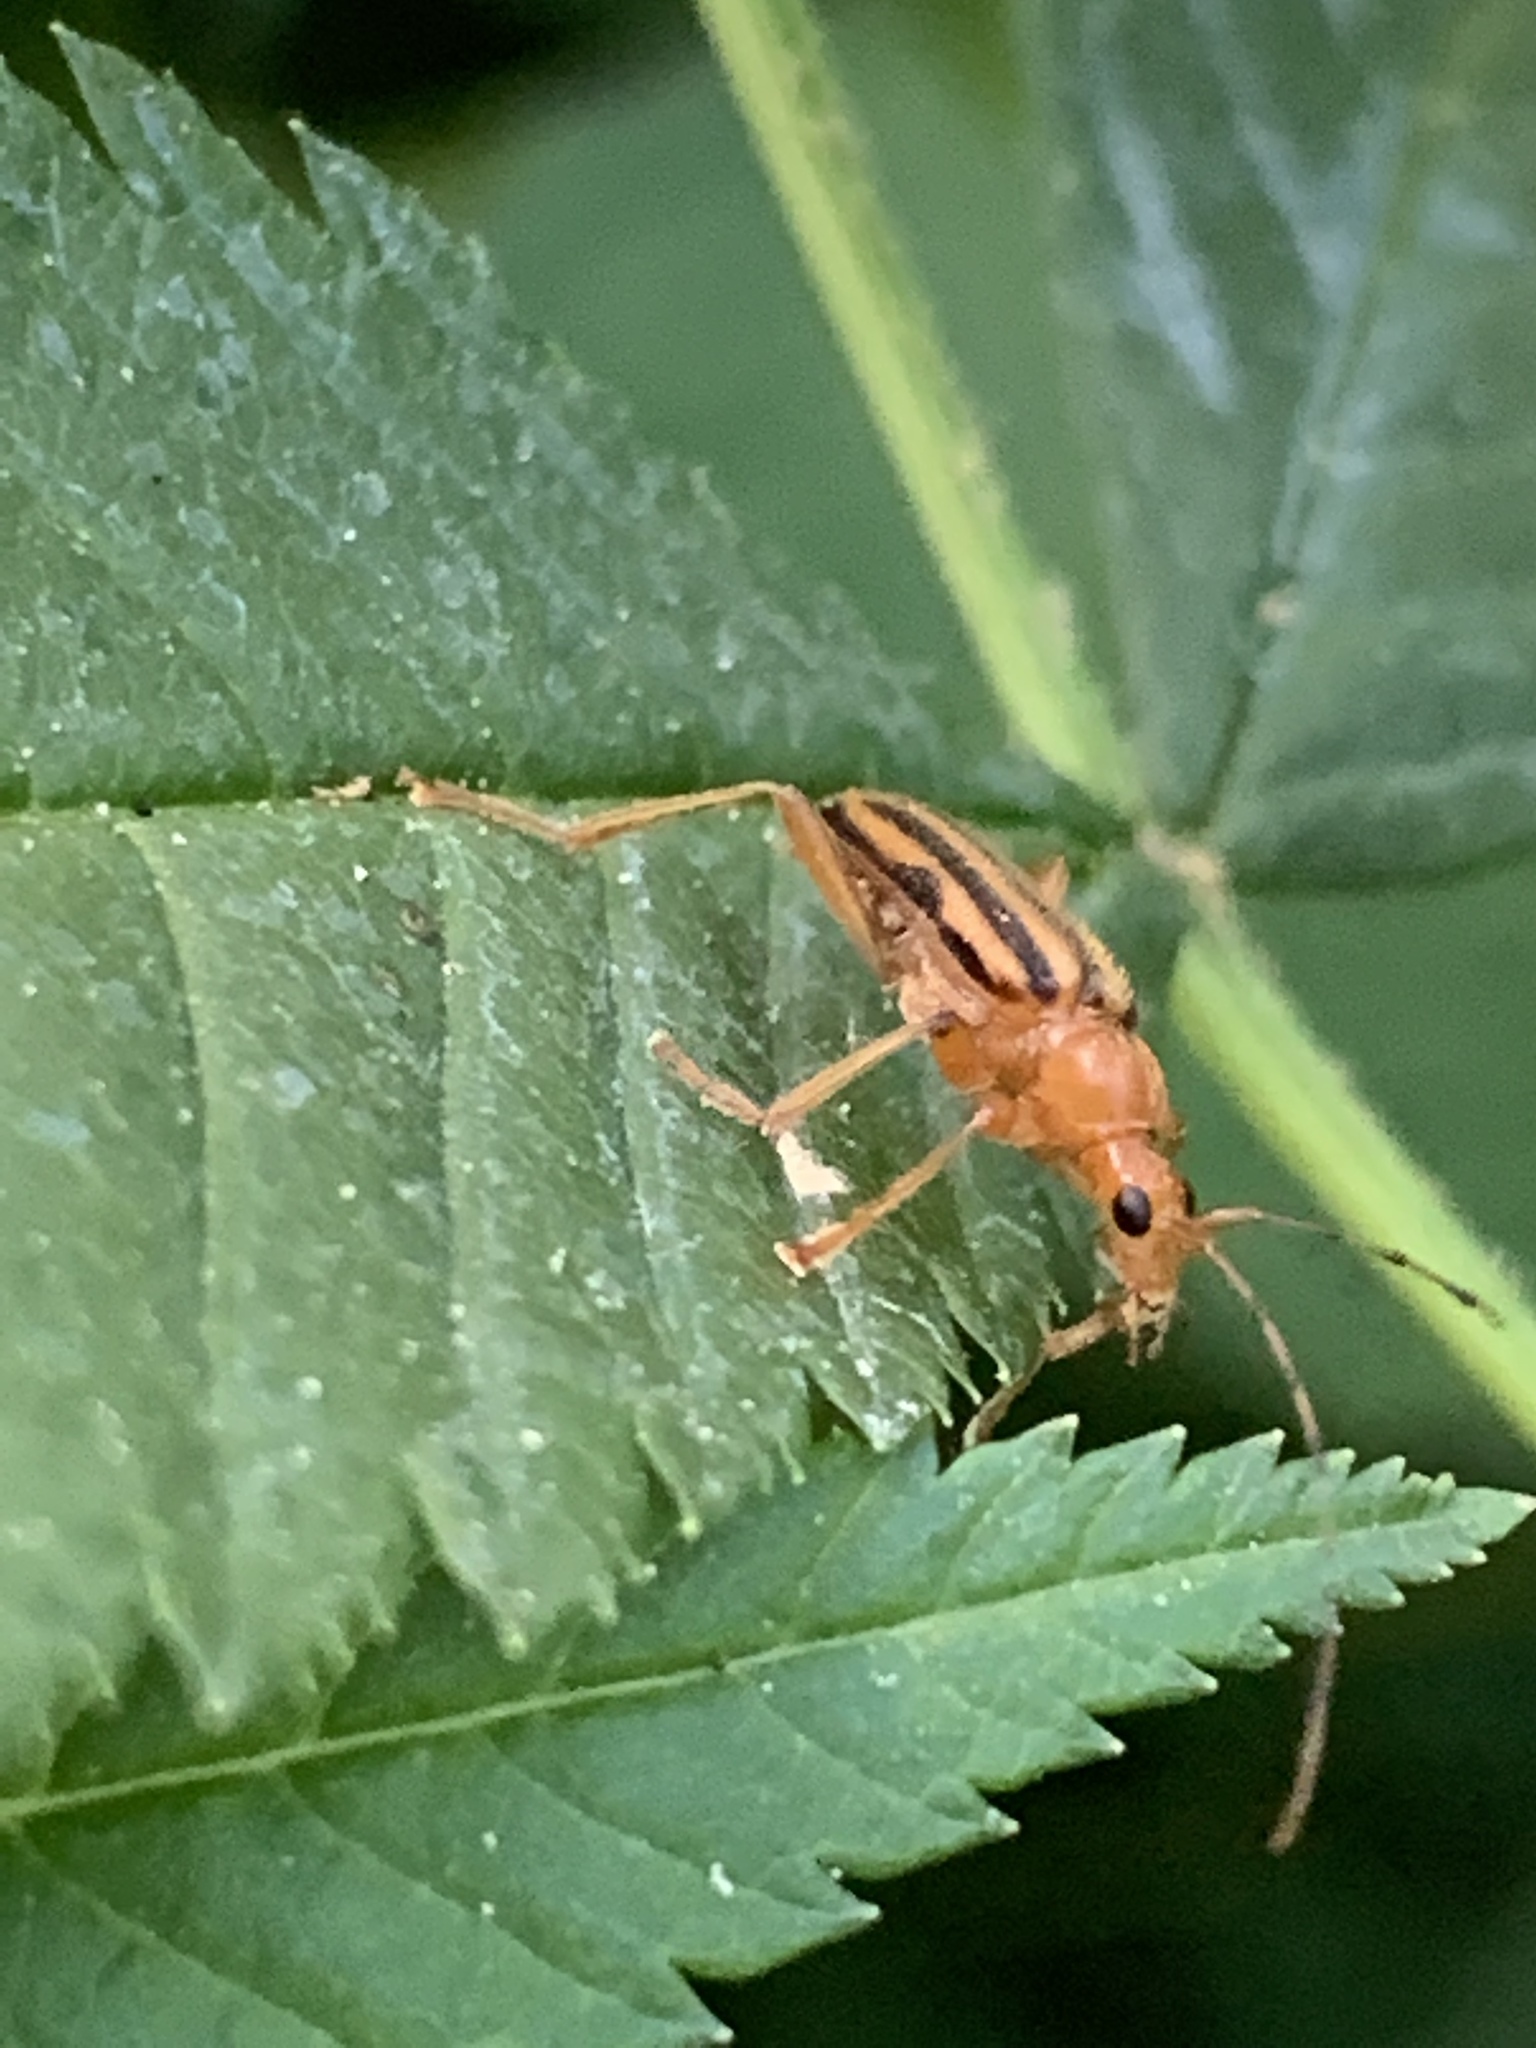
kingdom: Animalia
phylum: Arthropoda
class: Insecta
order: Coleoptera
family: Cerambycidae
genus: Metacmaeops
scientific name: Metacmaeops vittata
